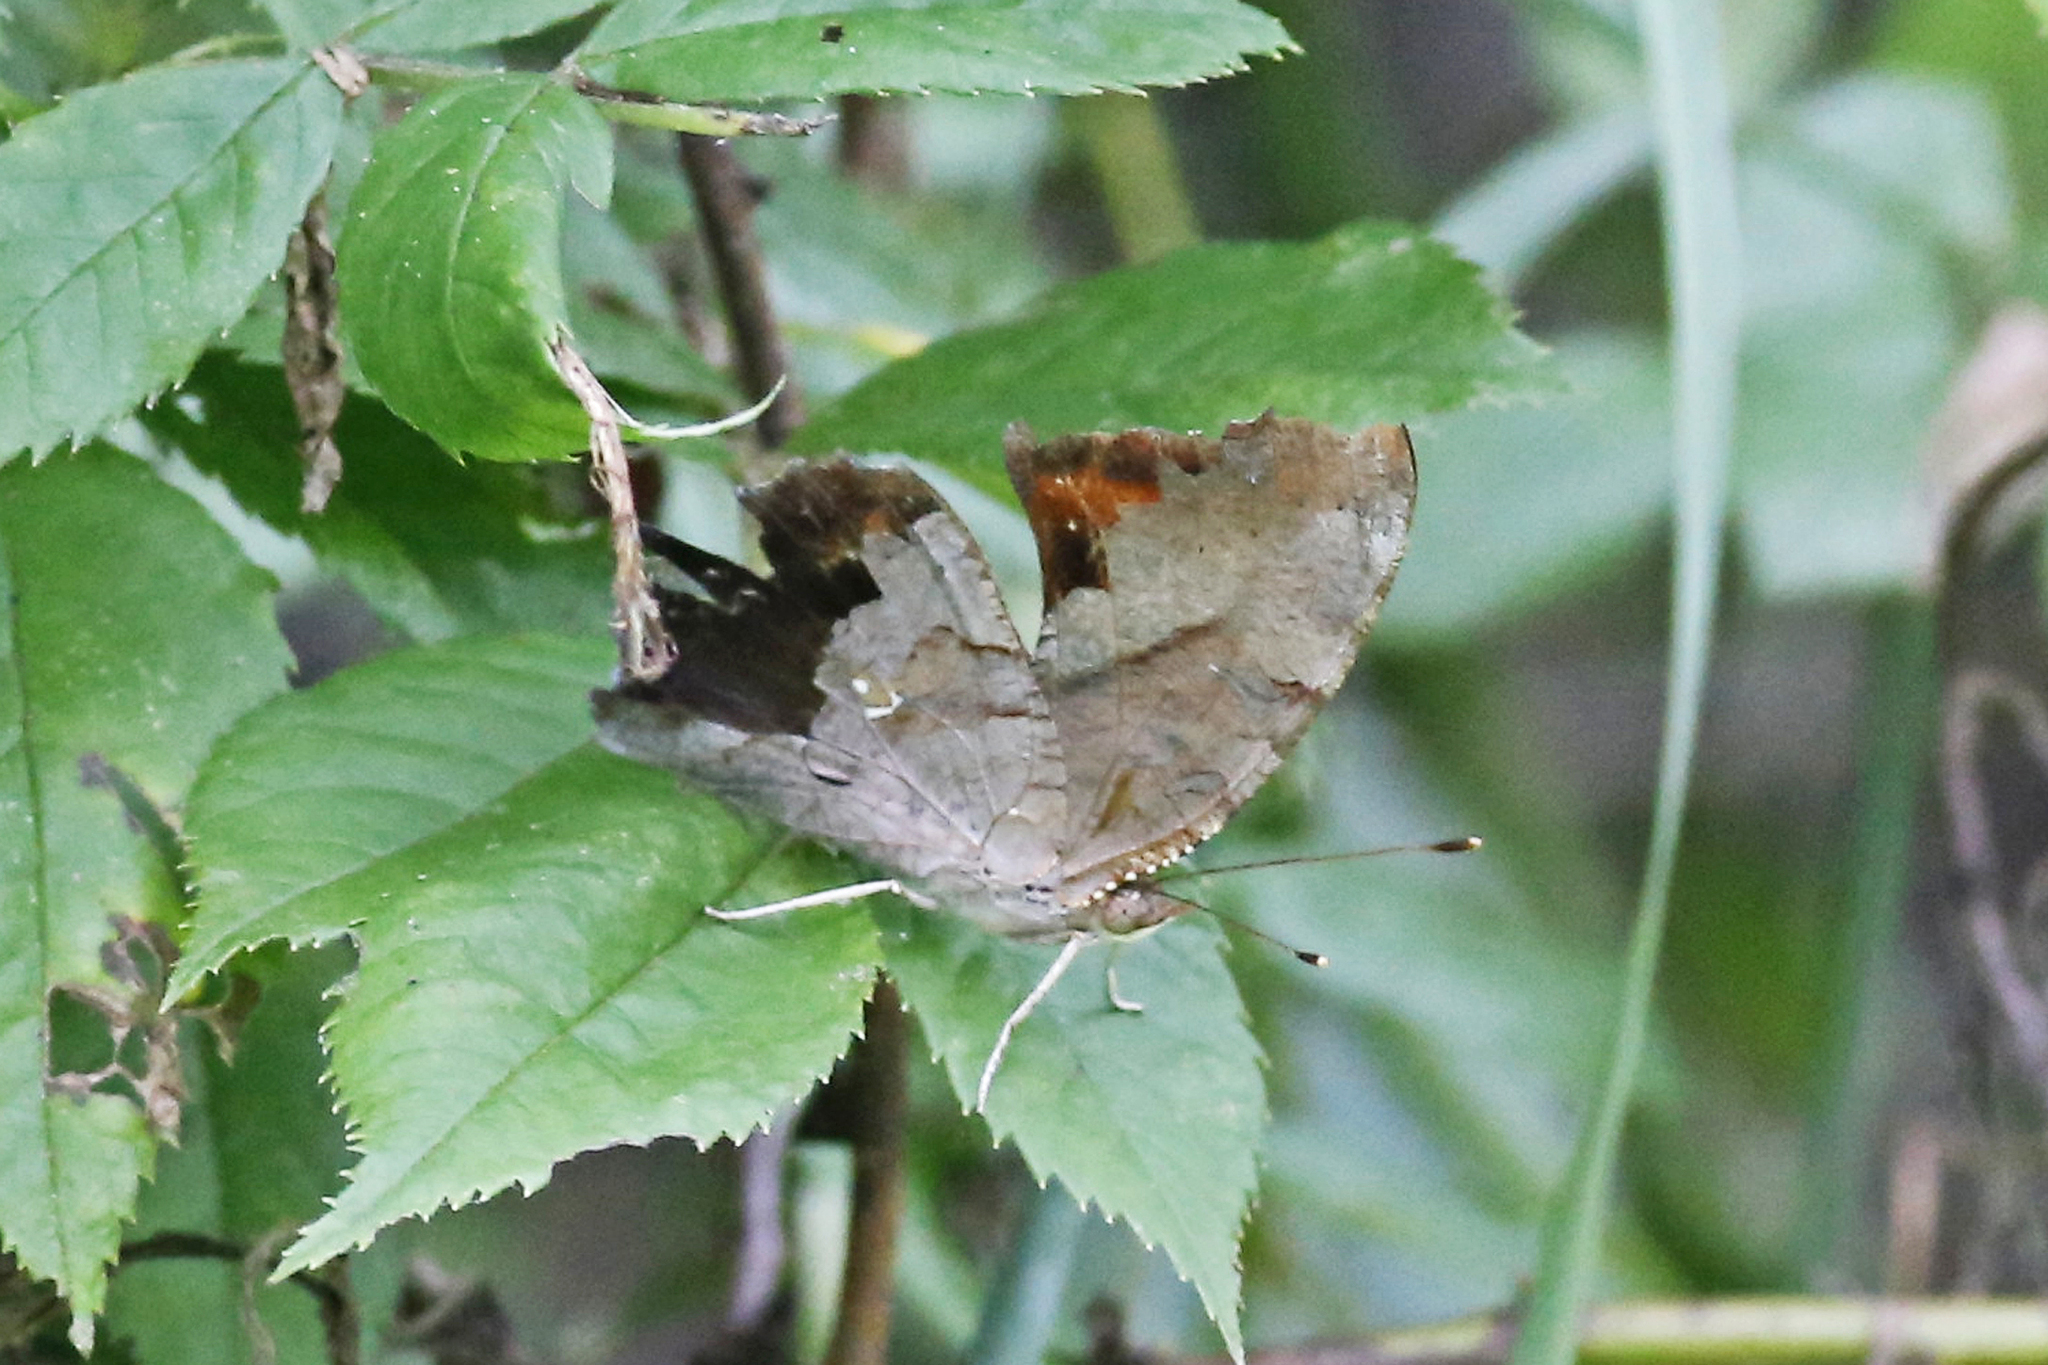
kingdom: Animalia
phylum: Arthropoda
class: Insecta
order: Lepidoptera
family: Nymphalidae
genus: Polygonia
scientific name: Polygonia interrogationis
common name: Question mark
